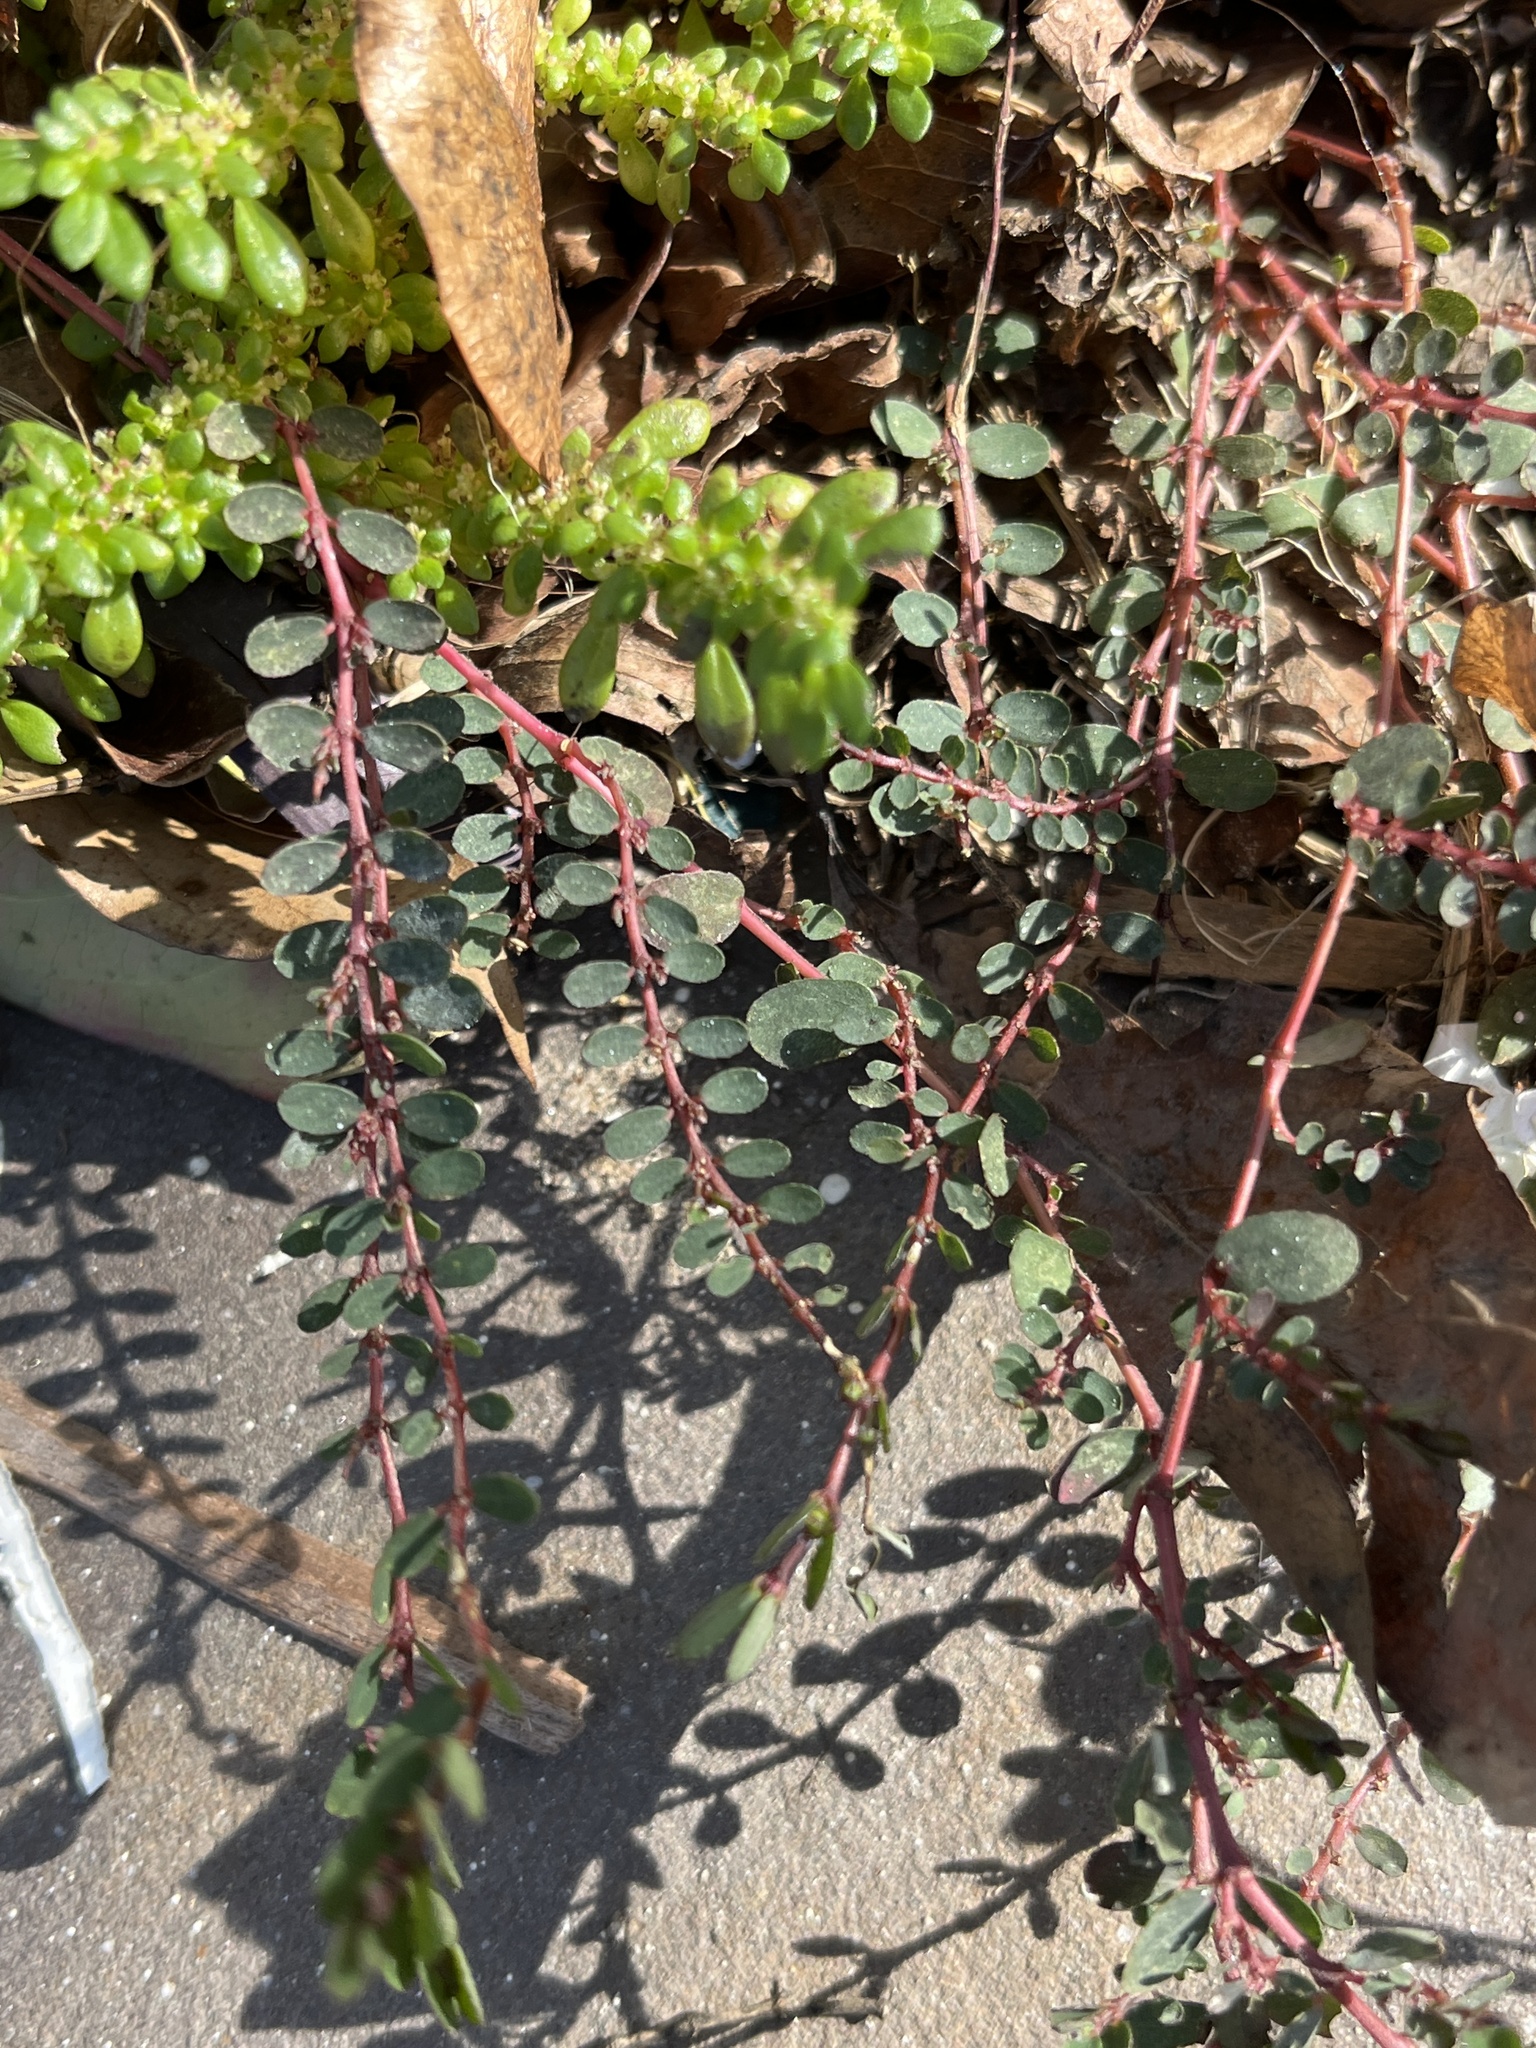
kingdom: Plantae
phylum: Tracheophyta
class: Magnoliopsida
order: Malpighiales
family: Euphorbiaceae
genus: Euphorbia
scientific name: Euphorbia prostrata
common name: Prostrate sandmat
